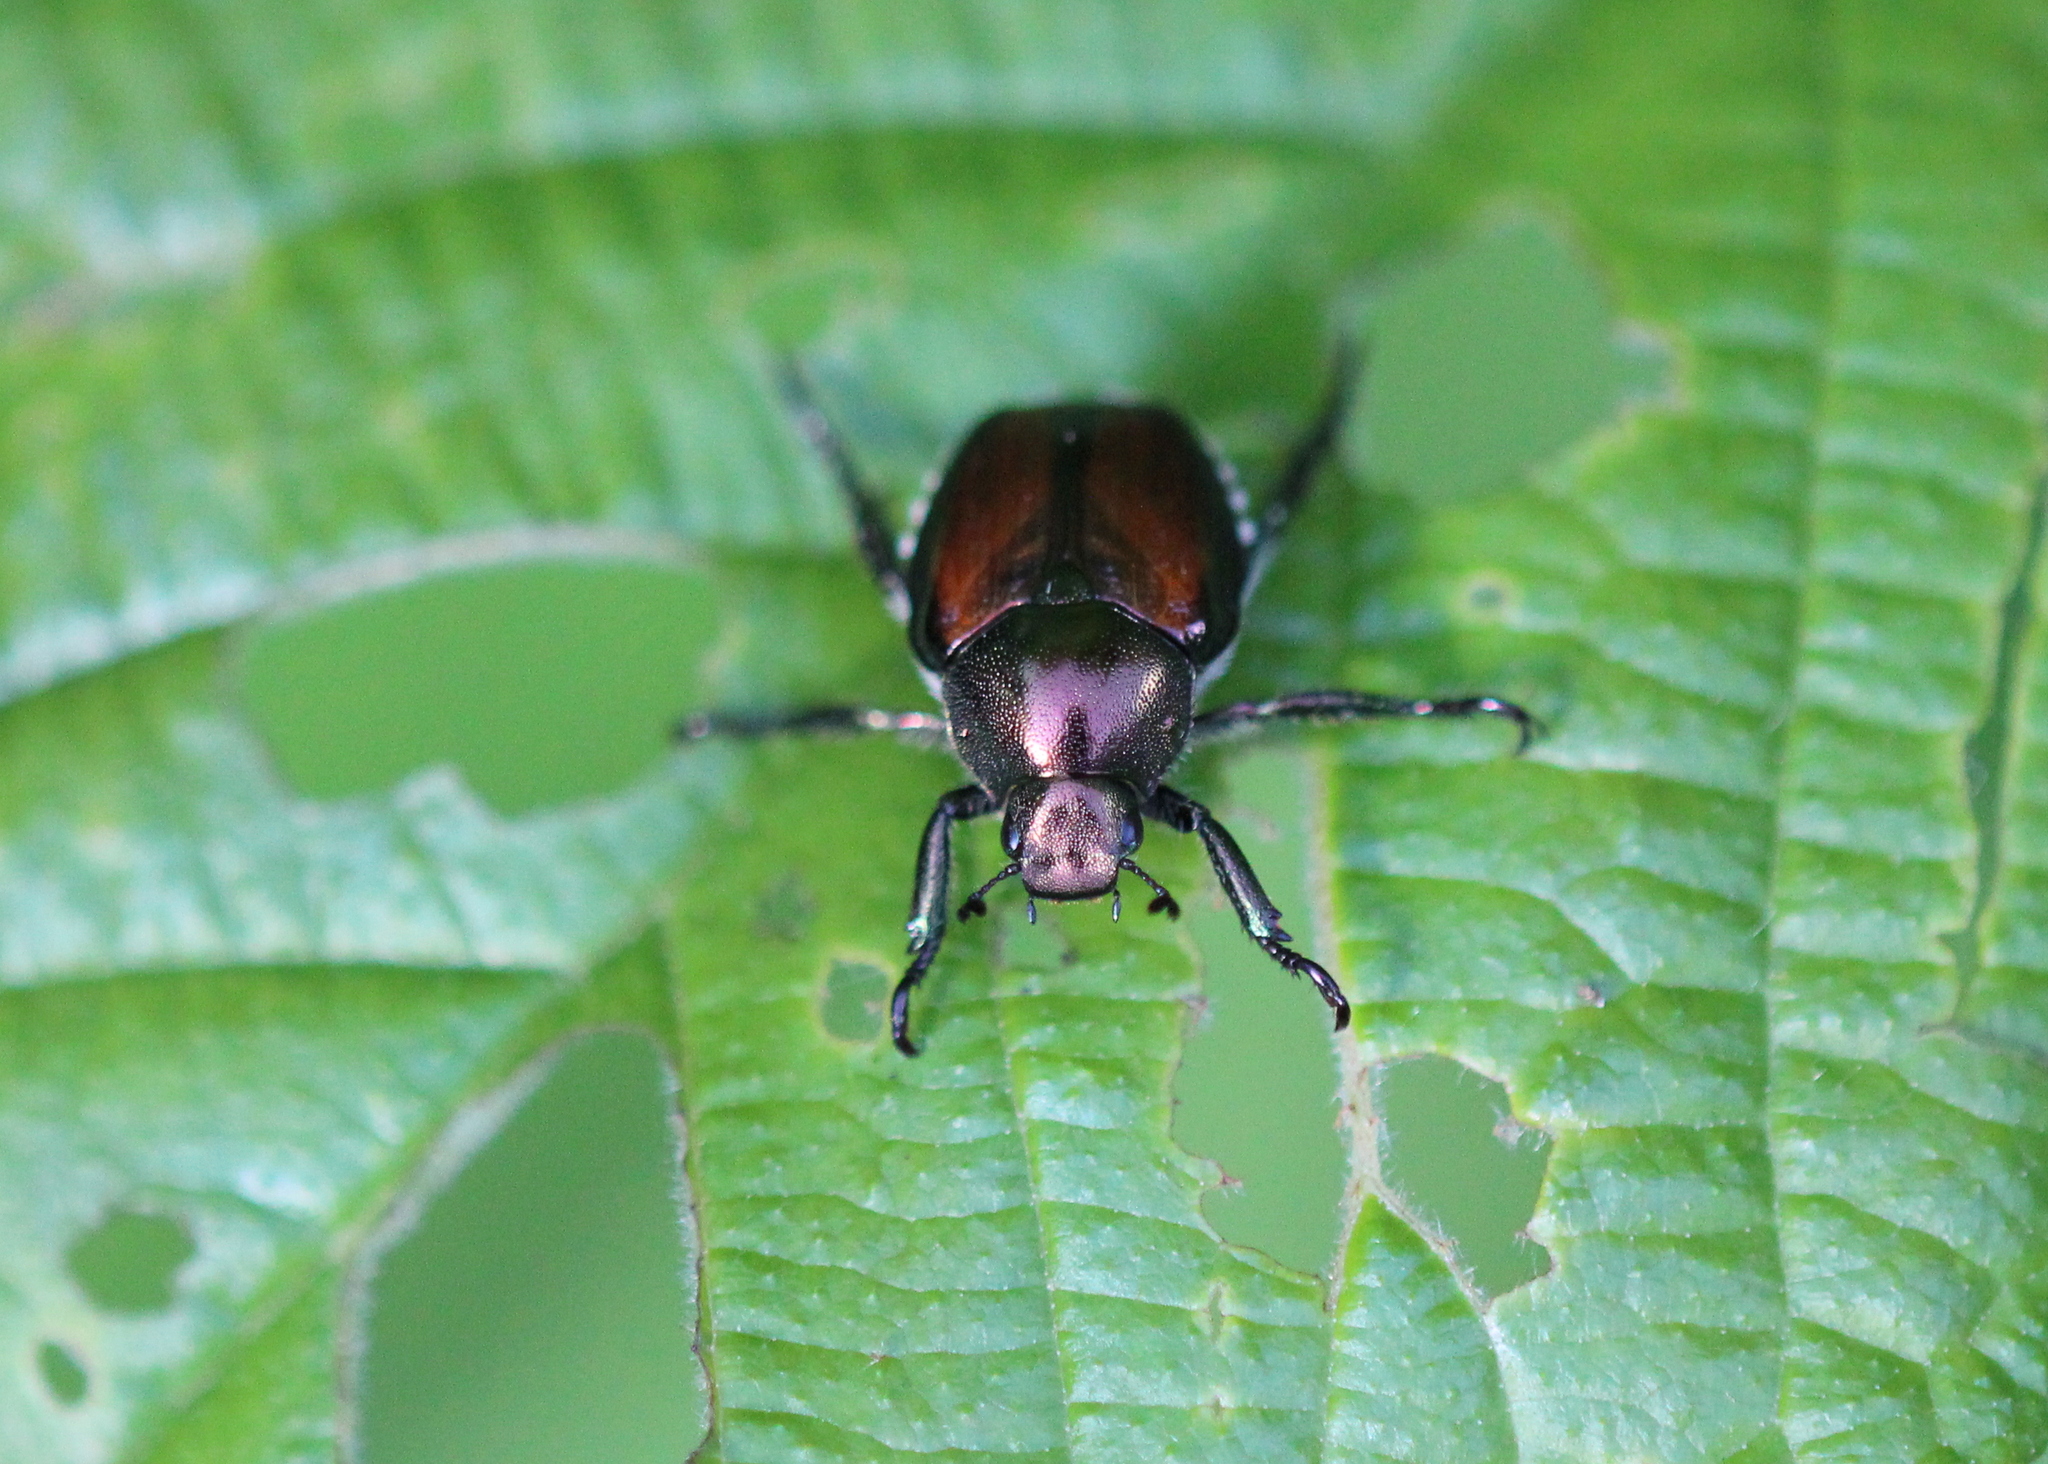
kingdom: Animalia
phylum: Arthropoda
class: Insecta
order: Coleoptera
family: Scarabaeidae
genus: Popillia
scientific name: Popillia japonica
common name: Japanese beetle
